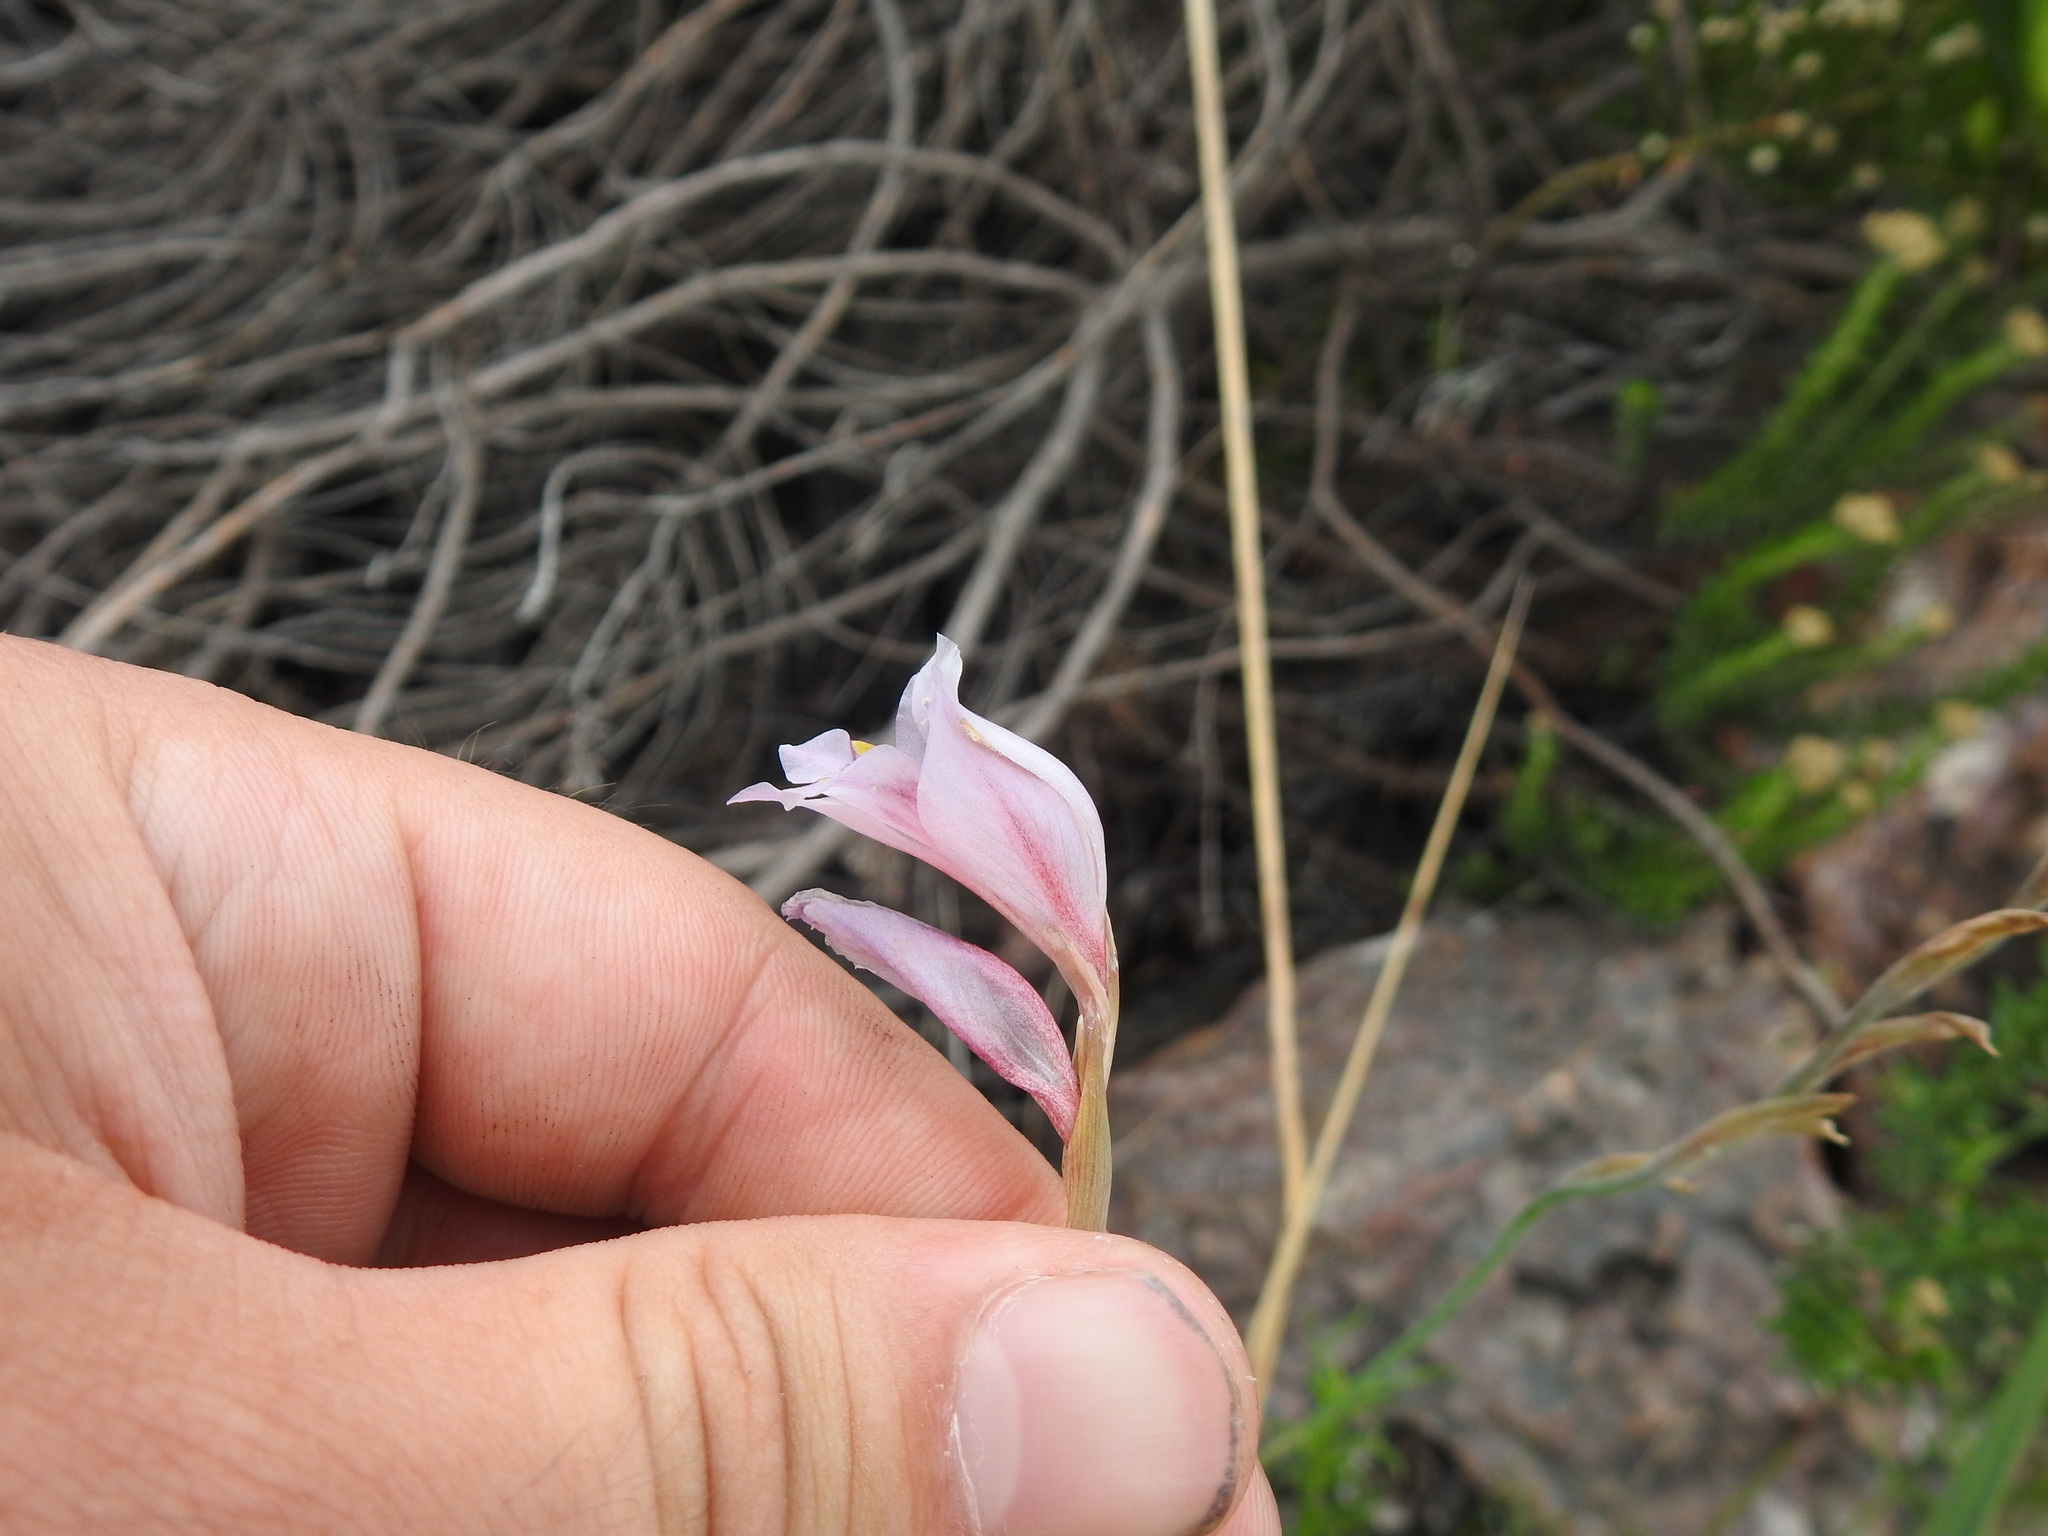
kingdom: Plantae
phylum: Tracheophyta
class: Liliopsida
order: Asparagales
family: Iridaceae
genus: Gladiolus
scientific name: Gladiolus martleyi
